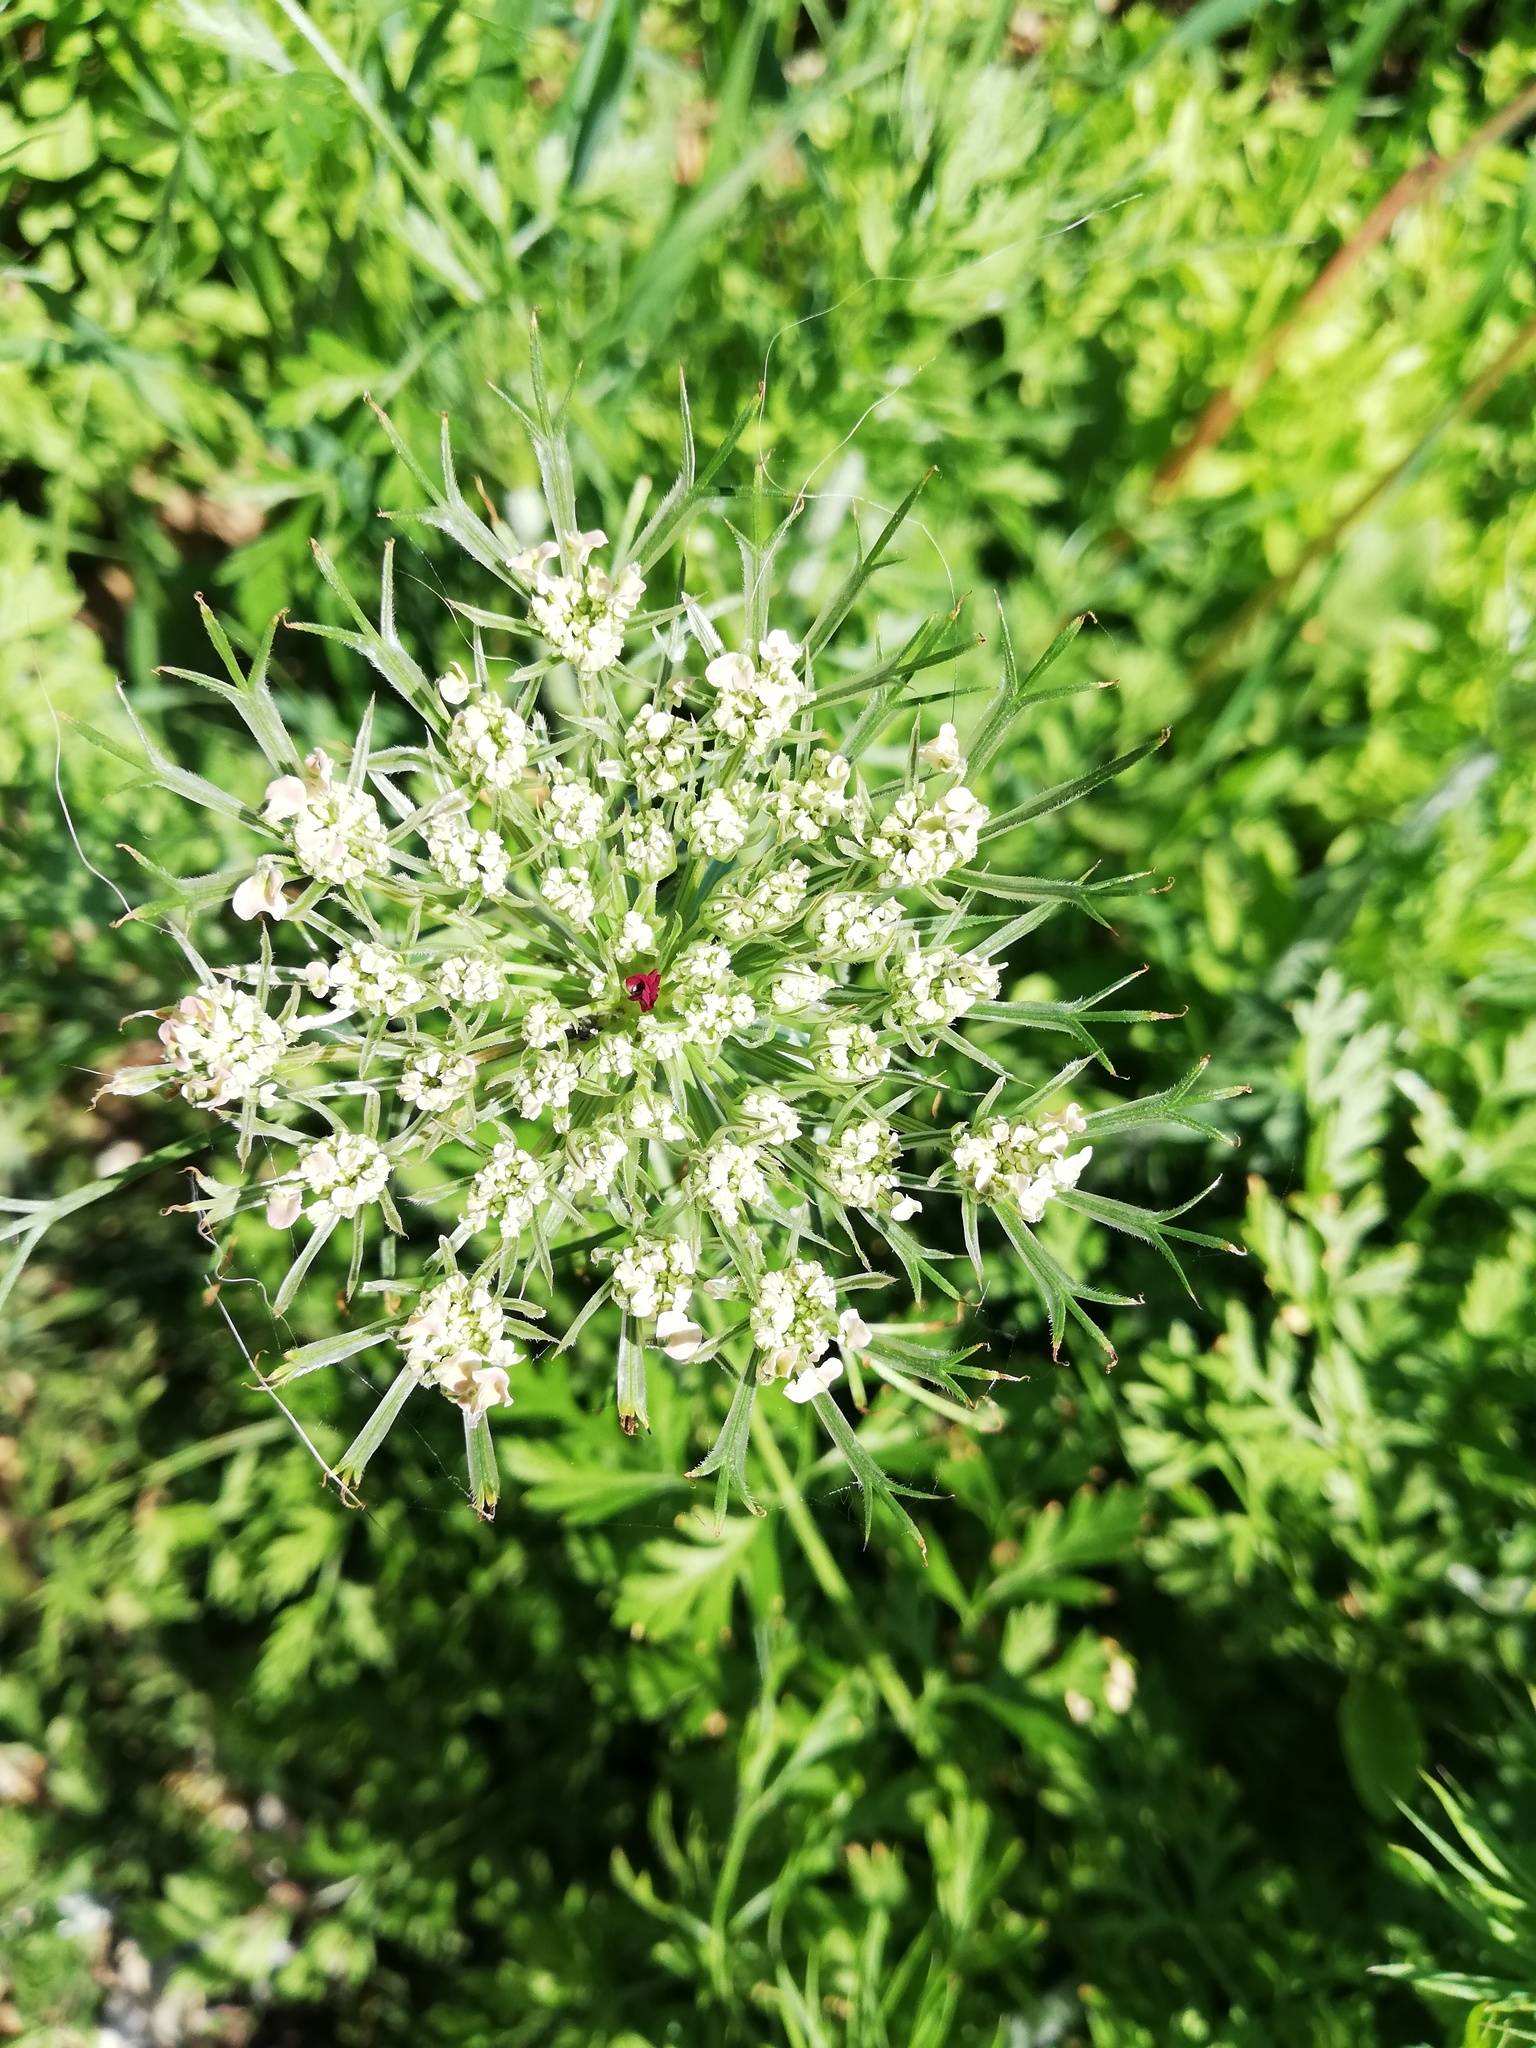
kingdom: Plantae
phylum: Tracheophyta
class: Magnoliopsida
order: Apiales
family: Apiaceae
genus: Daucus
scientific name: Daucus carota
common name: Wild carrot
